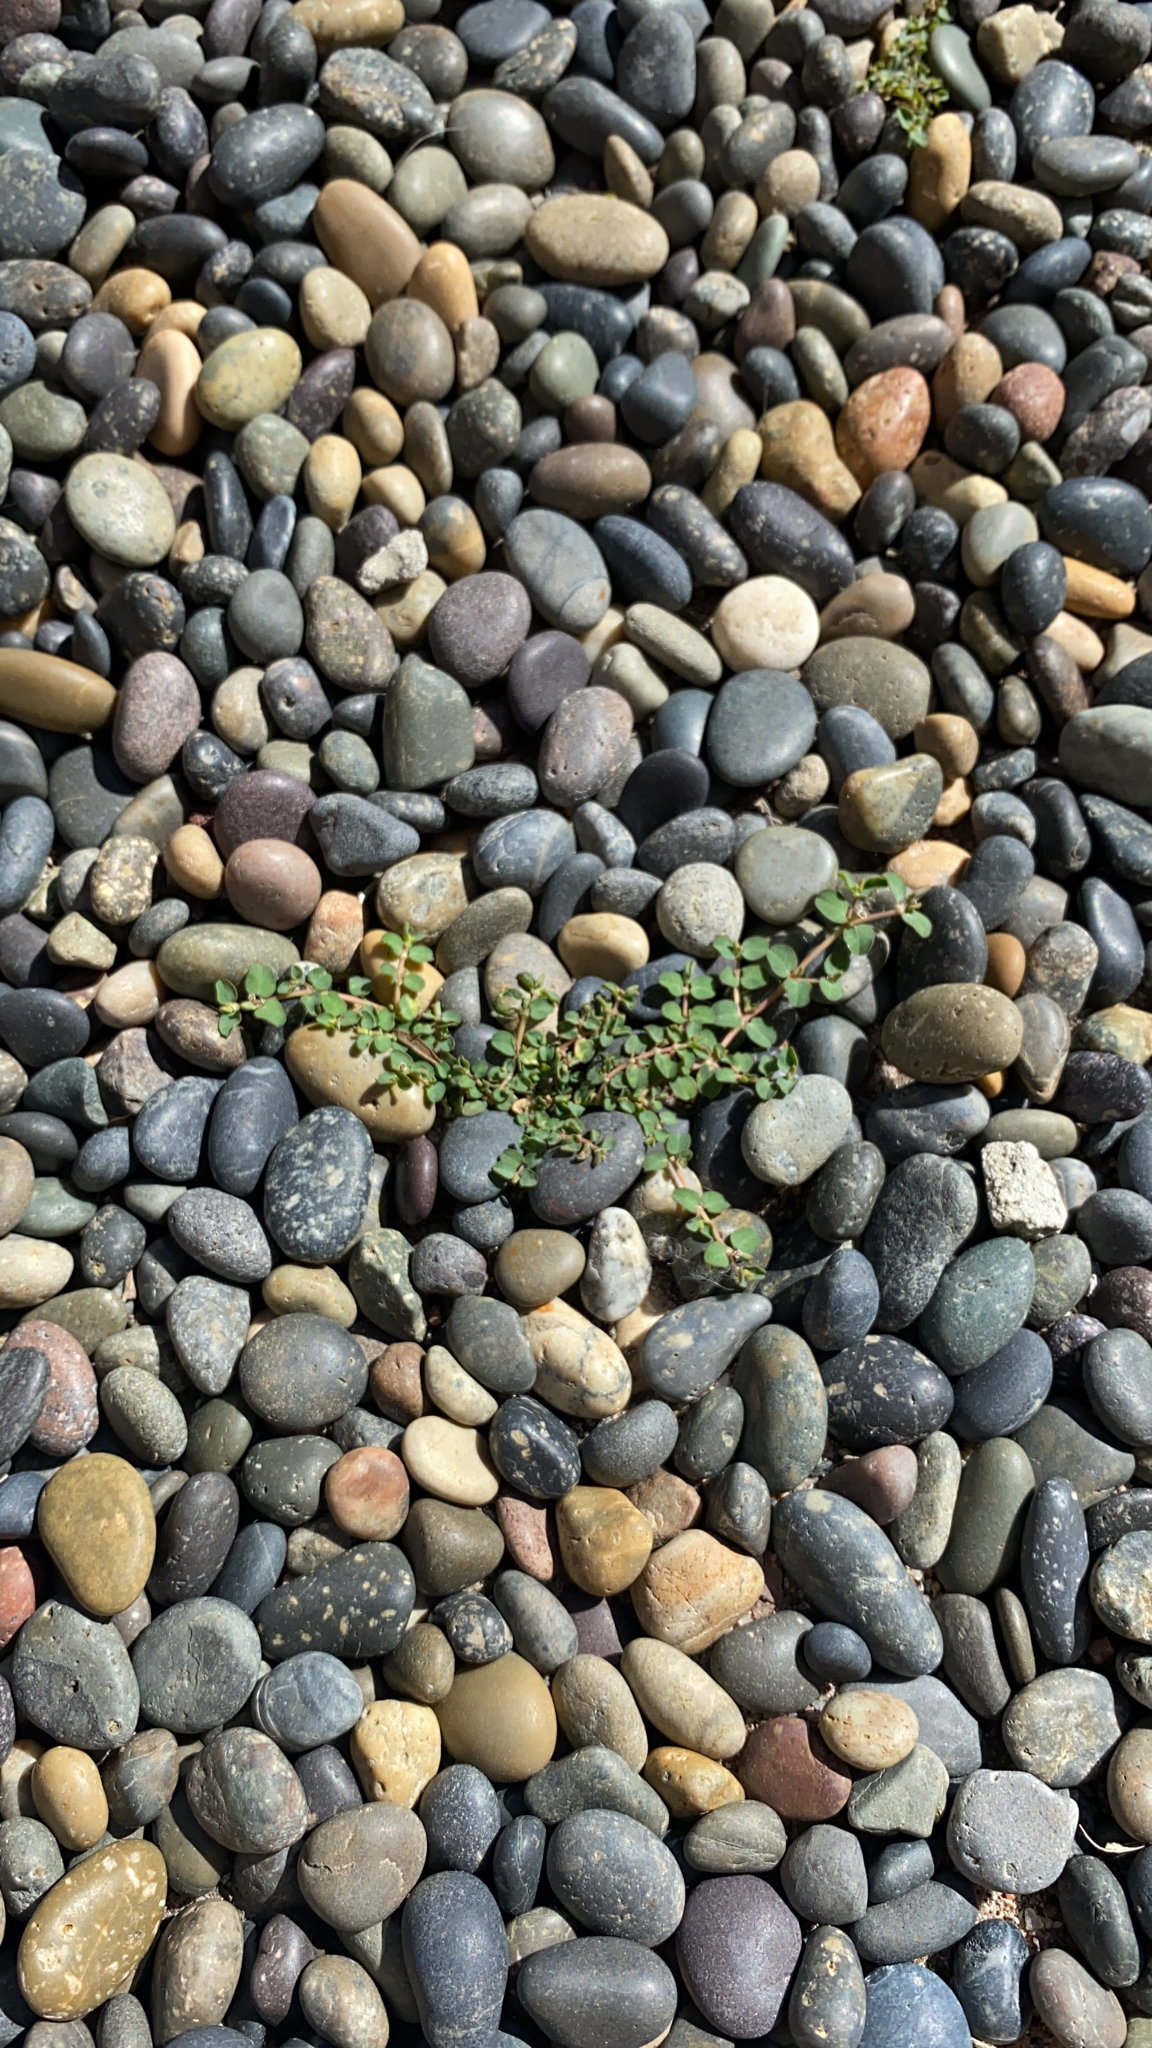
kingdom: Plantae
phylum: Tracheophyta
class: Magnoliopsida
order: Malpighiales
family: Euphorbiaceae
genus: Euphorbia
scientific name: Euphorbia serpens
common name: Matted sandmat
